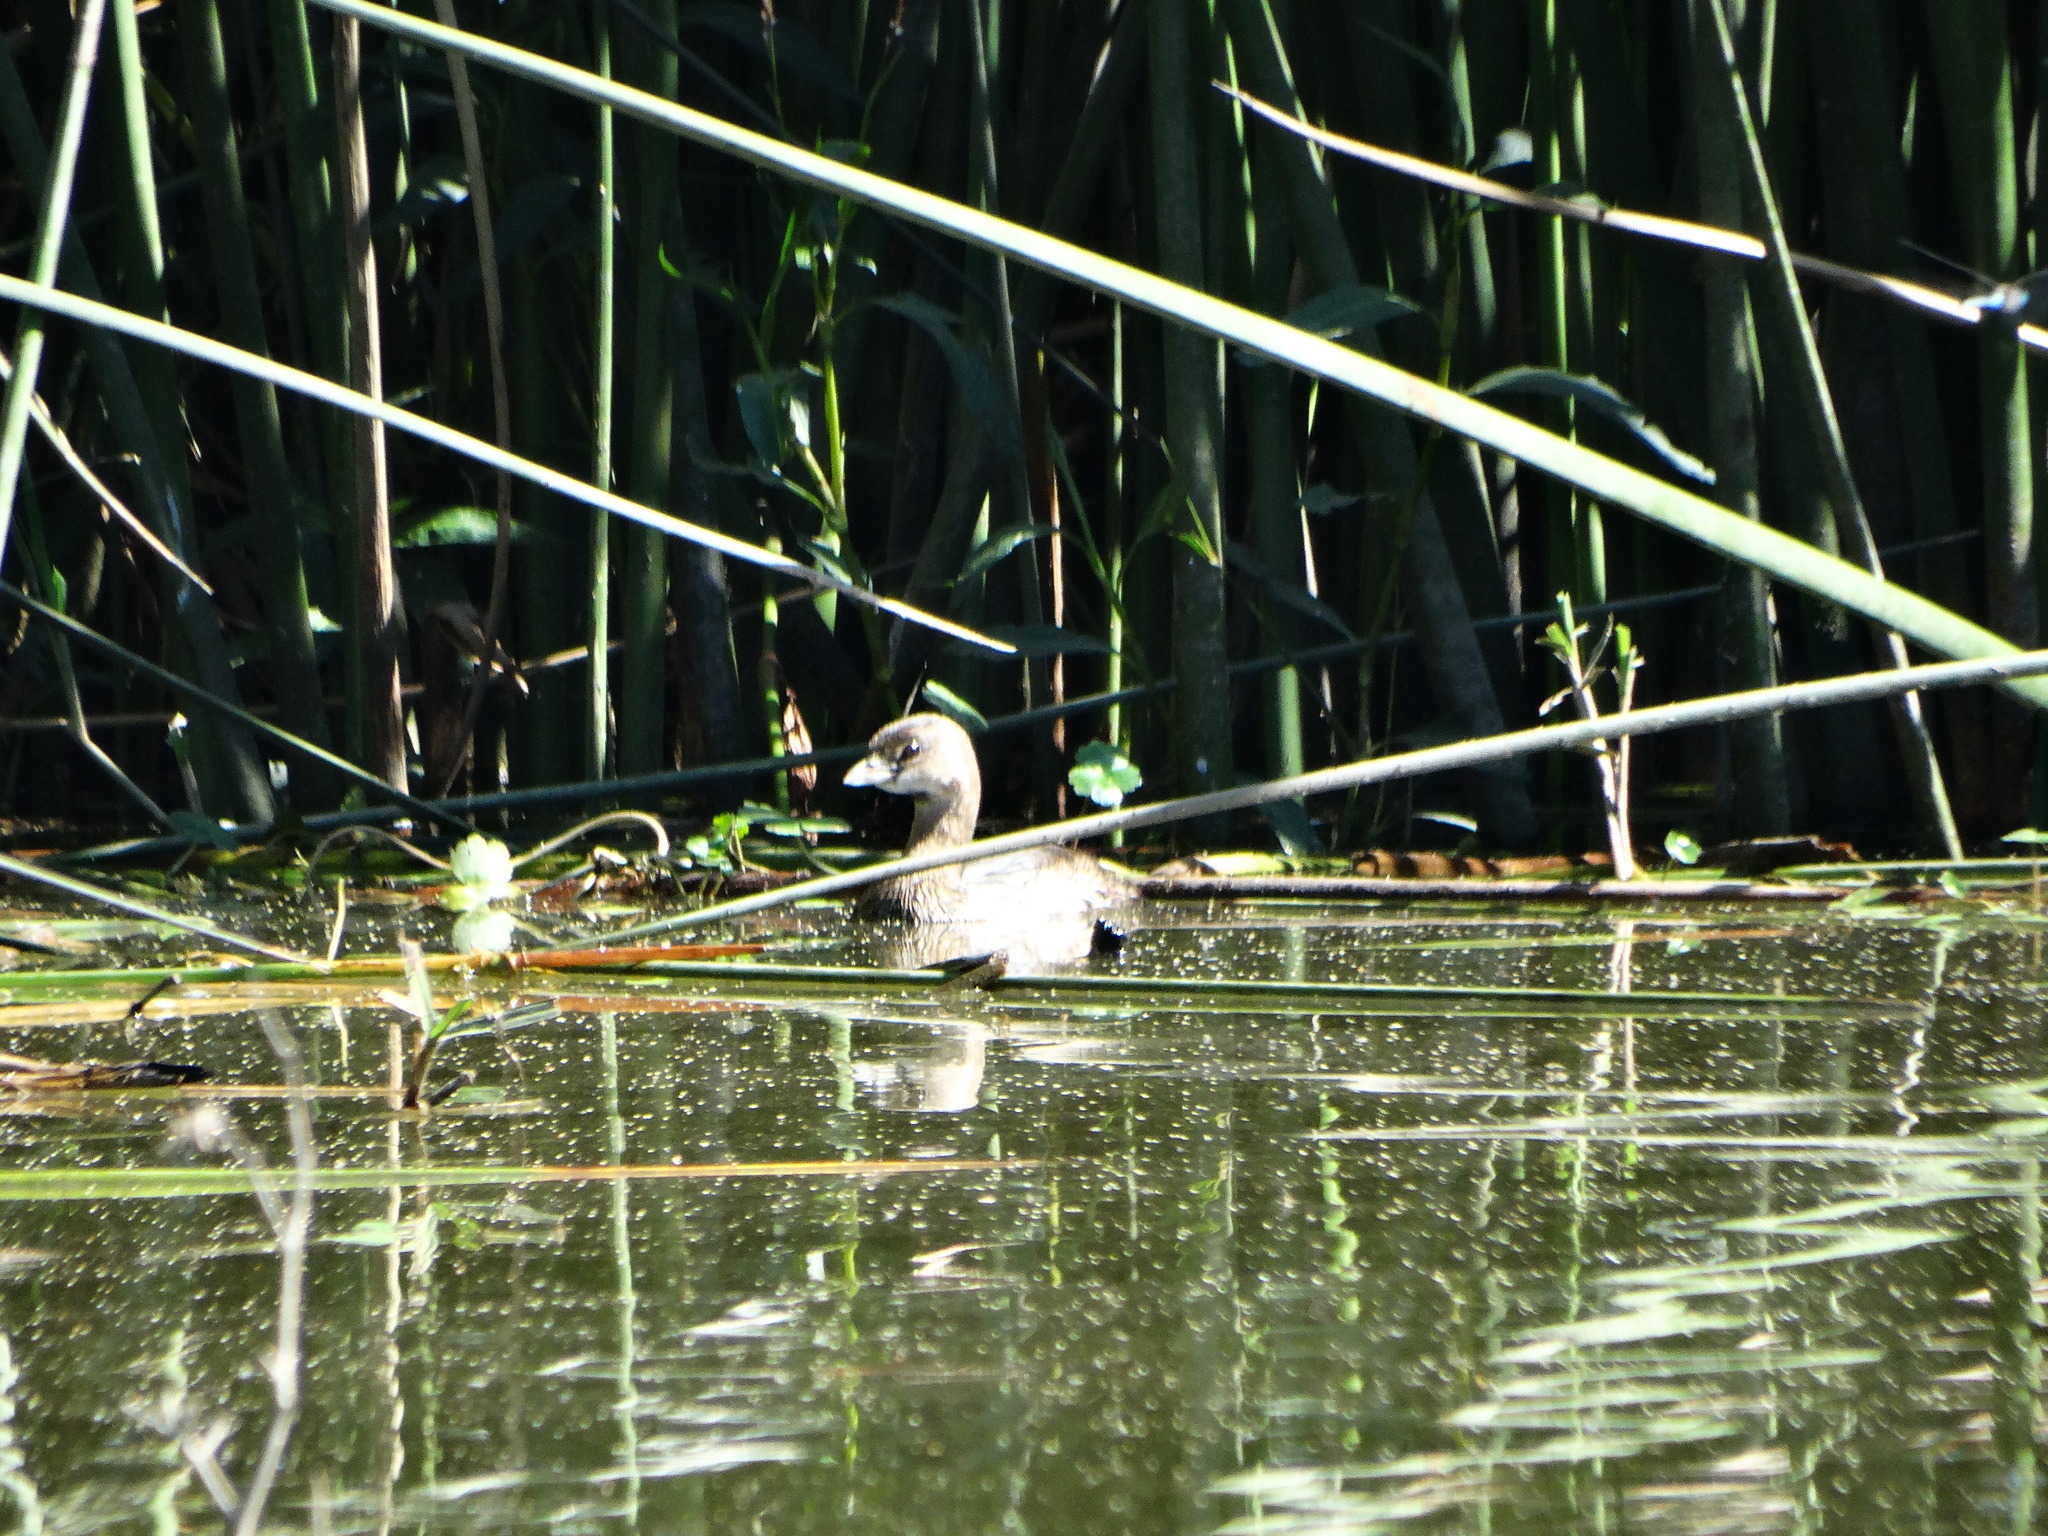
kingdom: Animalia
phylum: Chordata
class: Aves
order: Podicipediformes
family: Podicipedidae
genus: Podilymbus
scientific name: Podilymbus podiceps
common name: Pied-billed grebe
